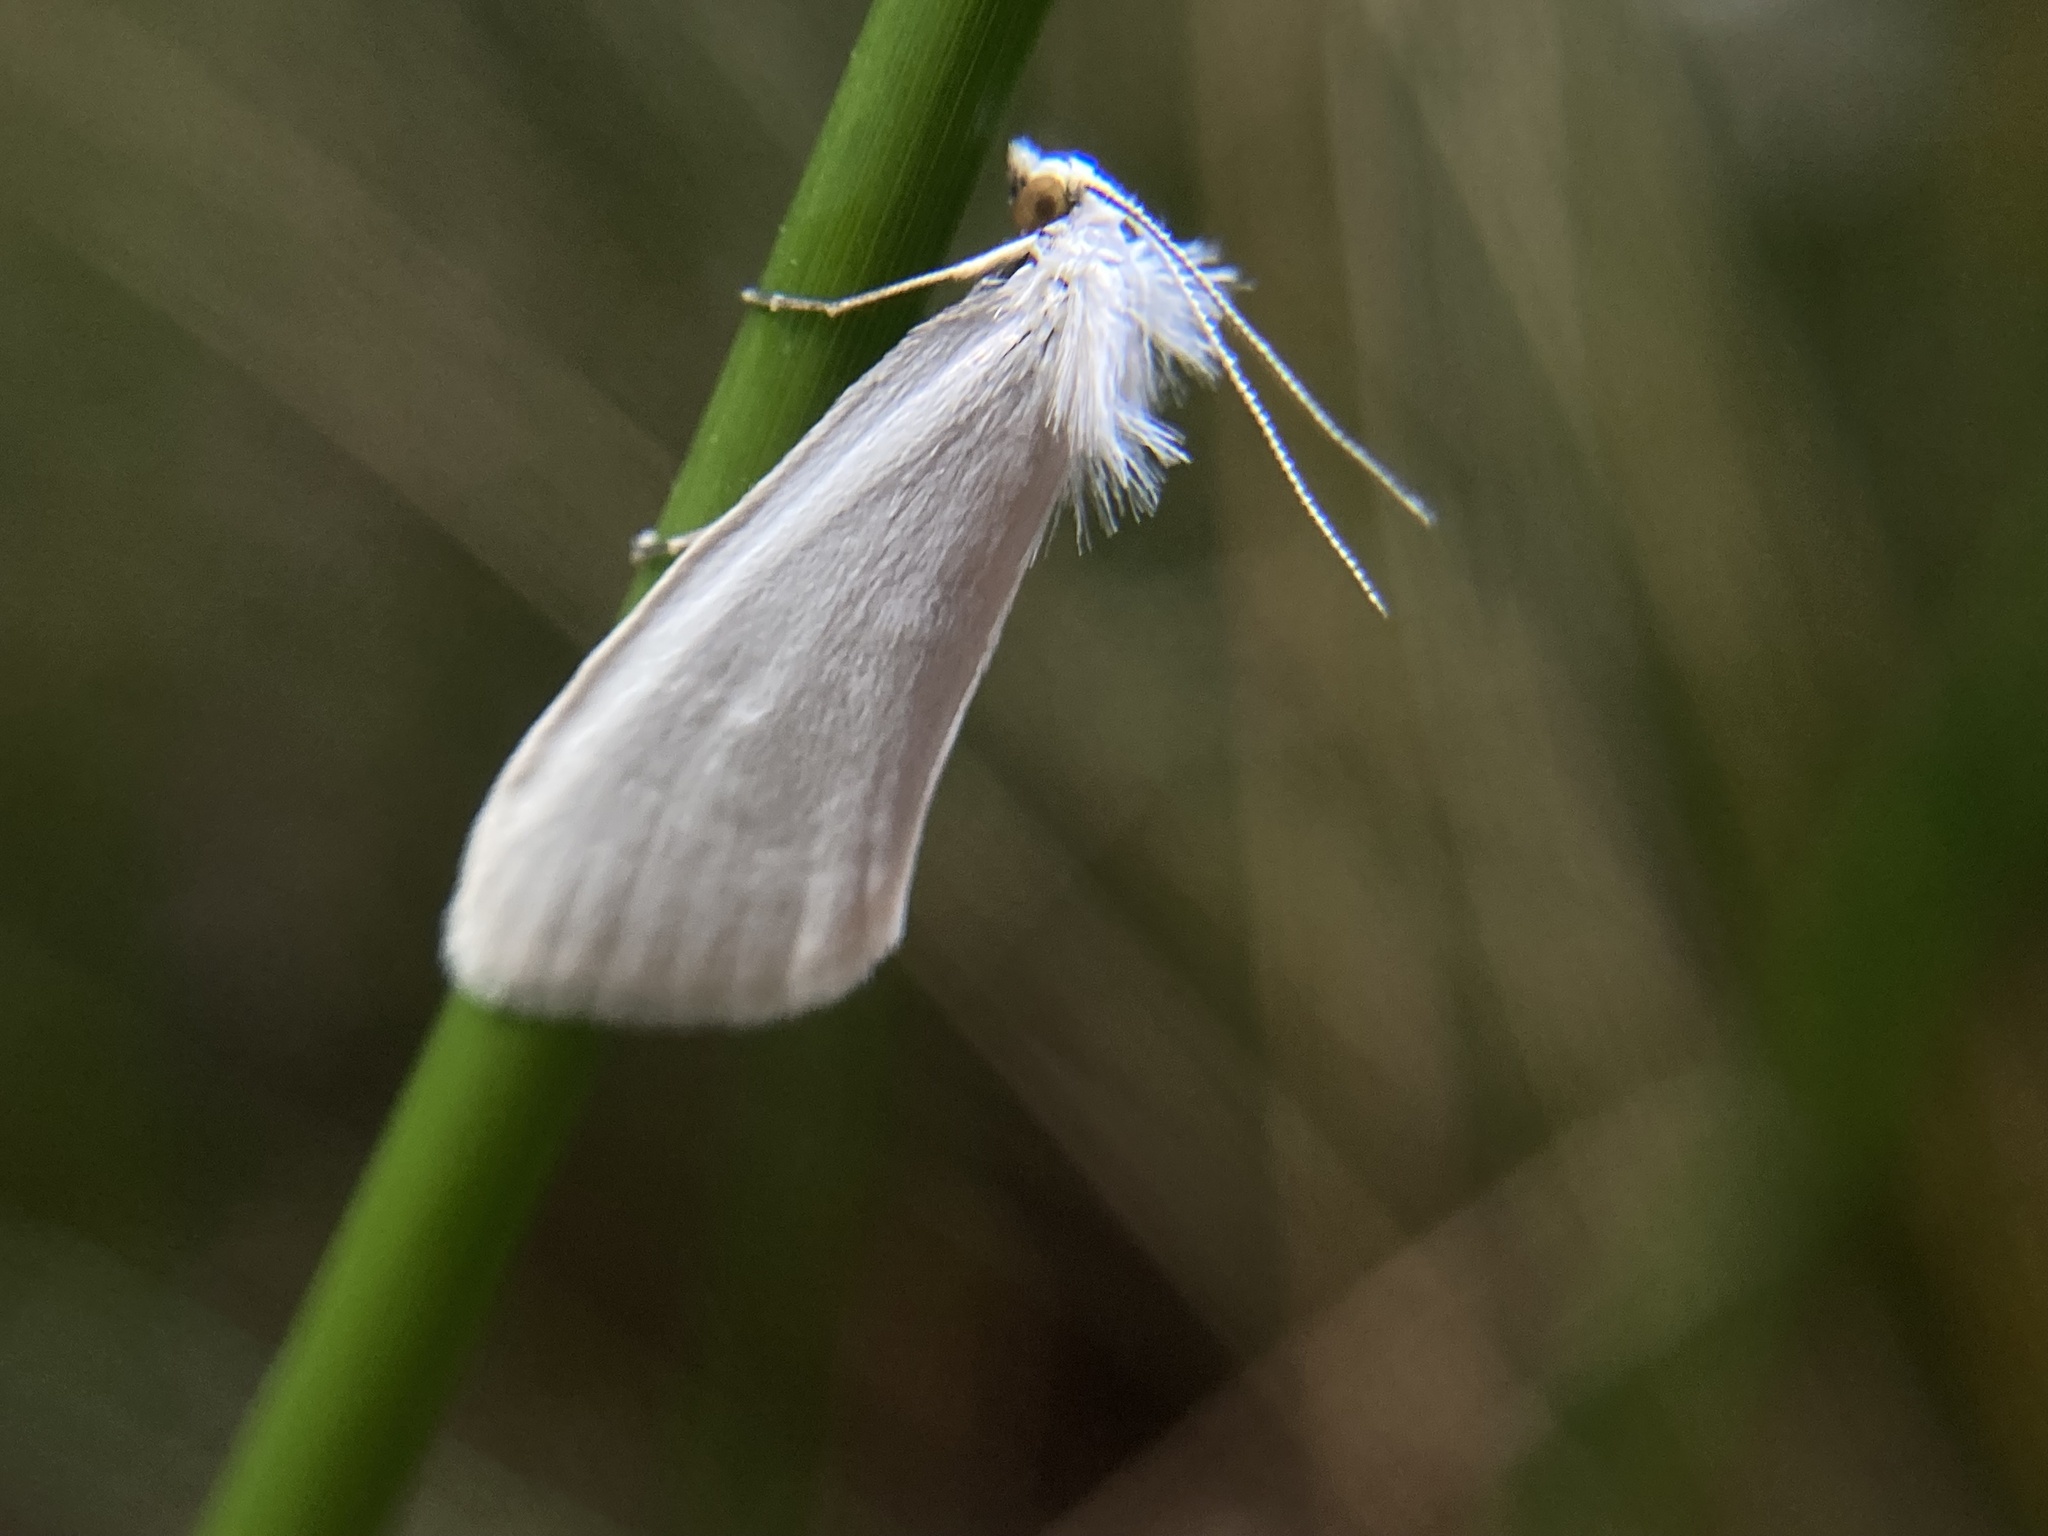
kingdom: Animalia
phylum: Arthropoda
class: Insecta
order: Lepidoptera
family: Crambidae
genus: Tipanaea
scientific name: Tipanaea patulella
